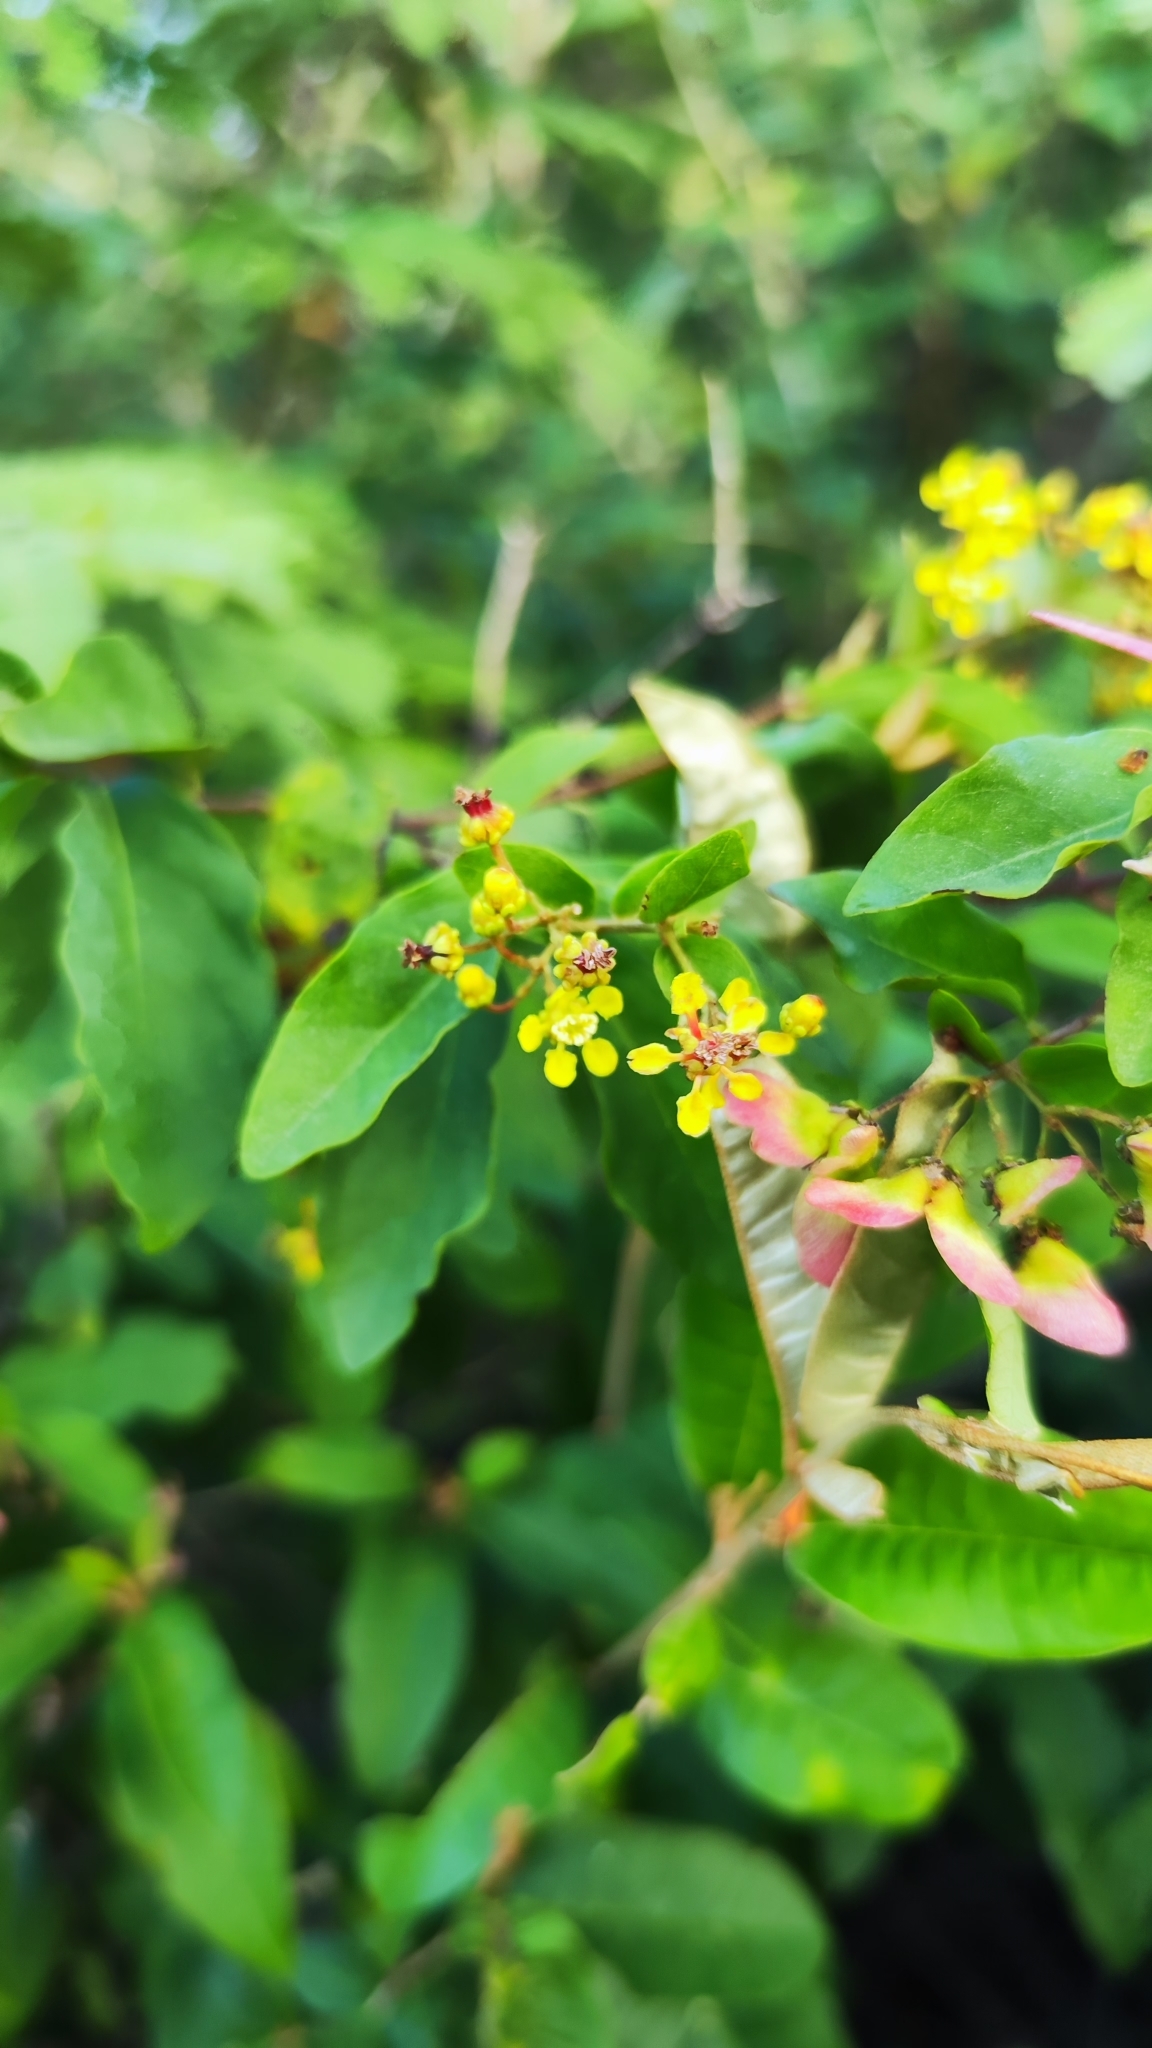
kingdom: Plantae
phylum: Tracheophyta
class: Magnoliopsida
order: Malpighiales
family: Malpighiaceae
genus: Heteropterys
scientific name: Heteropterys trichanthera
